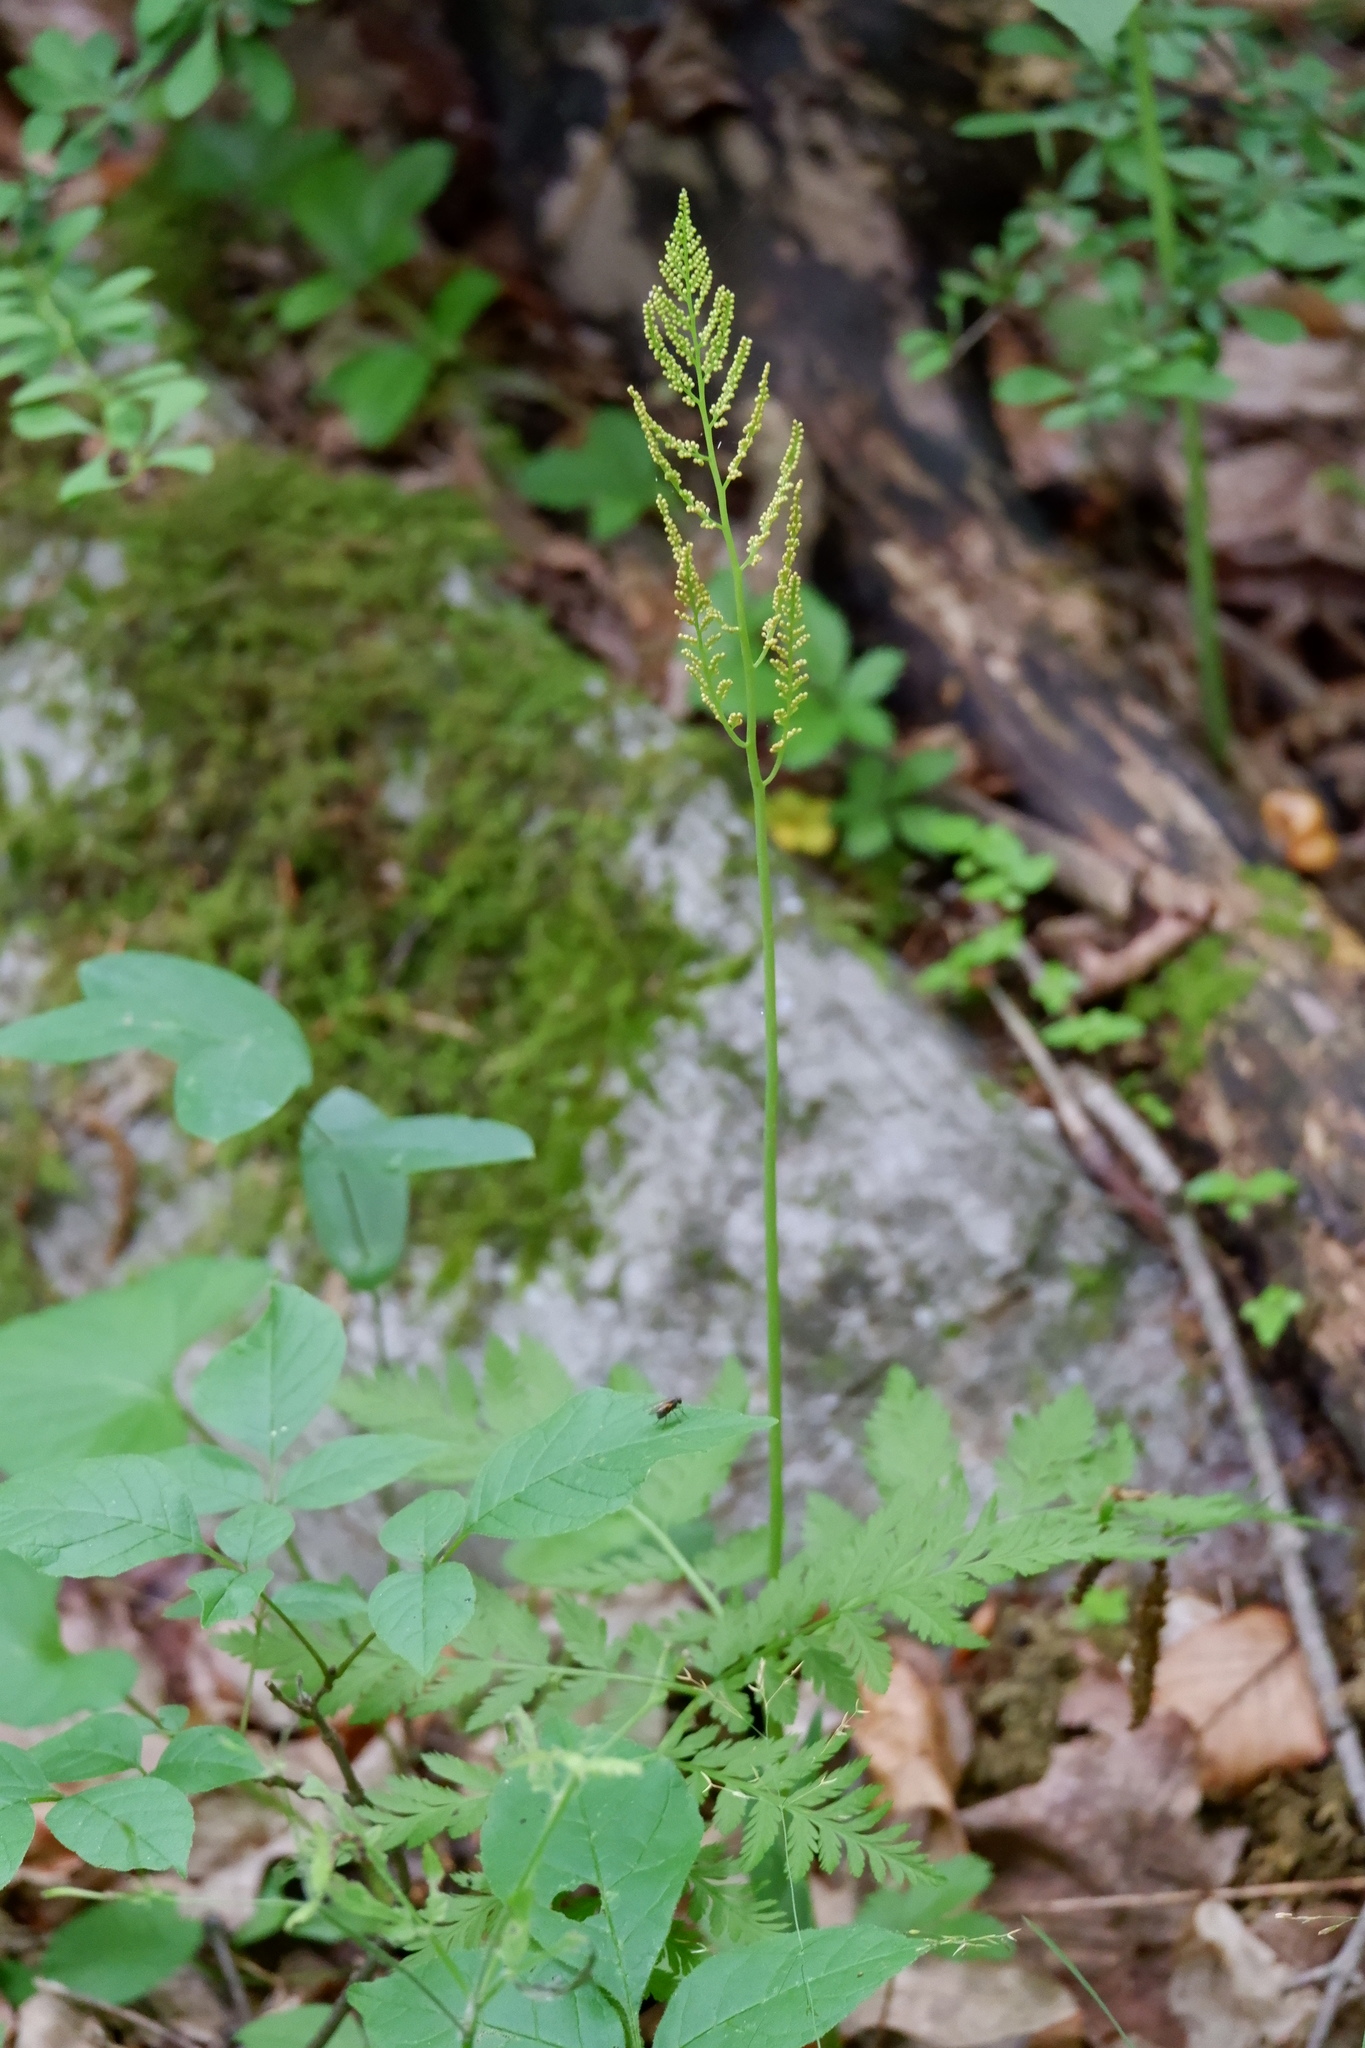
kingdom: Plantae
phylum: Tracheophyta
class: Polypodiopsida
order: Ophioglossales
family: Ophioglossaceae
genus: Botrypus
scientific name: Botrypus virginianus
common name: Common grapefern
